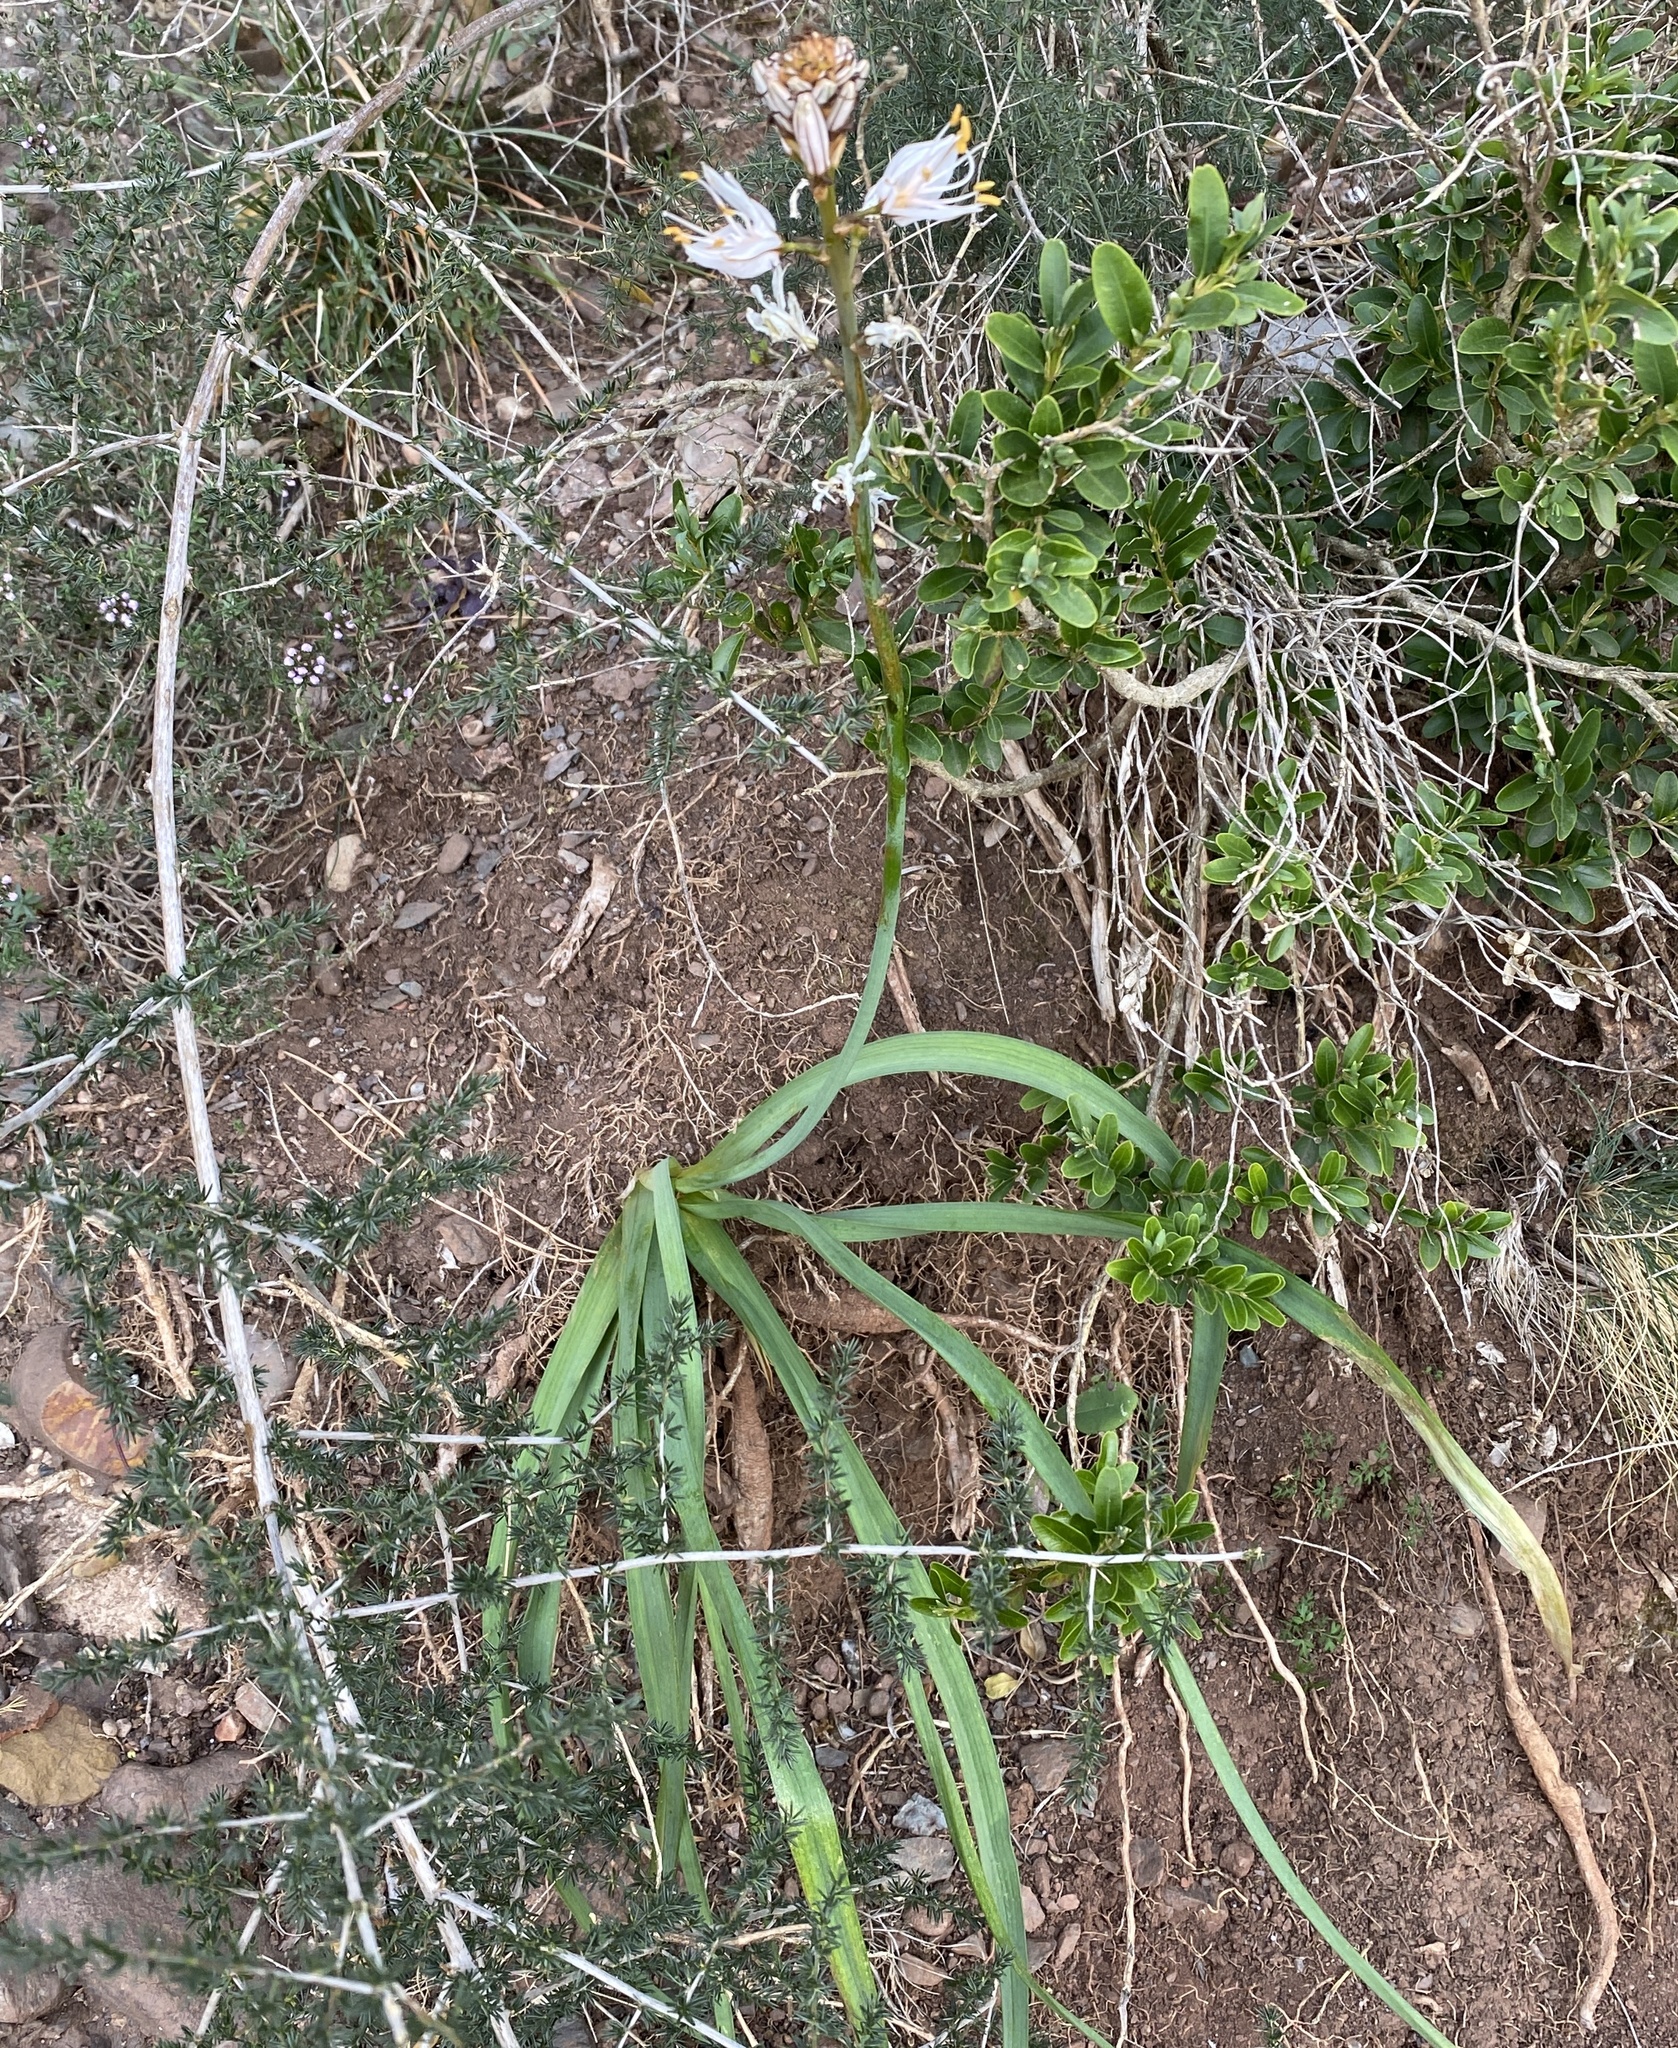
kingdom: Plantae
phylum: Tracheophyta
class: Liliopsida
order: Asparagales
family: Asphodelaceae
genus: Asphodelus
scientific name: Asphodelus cerasifer
